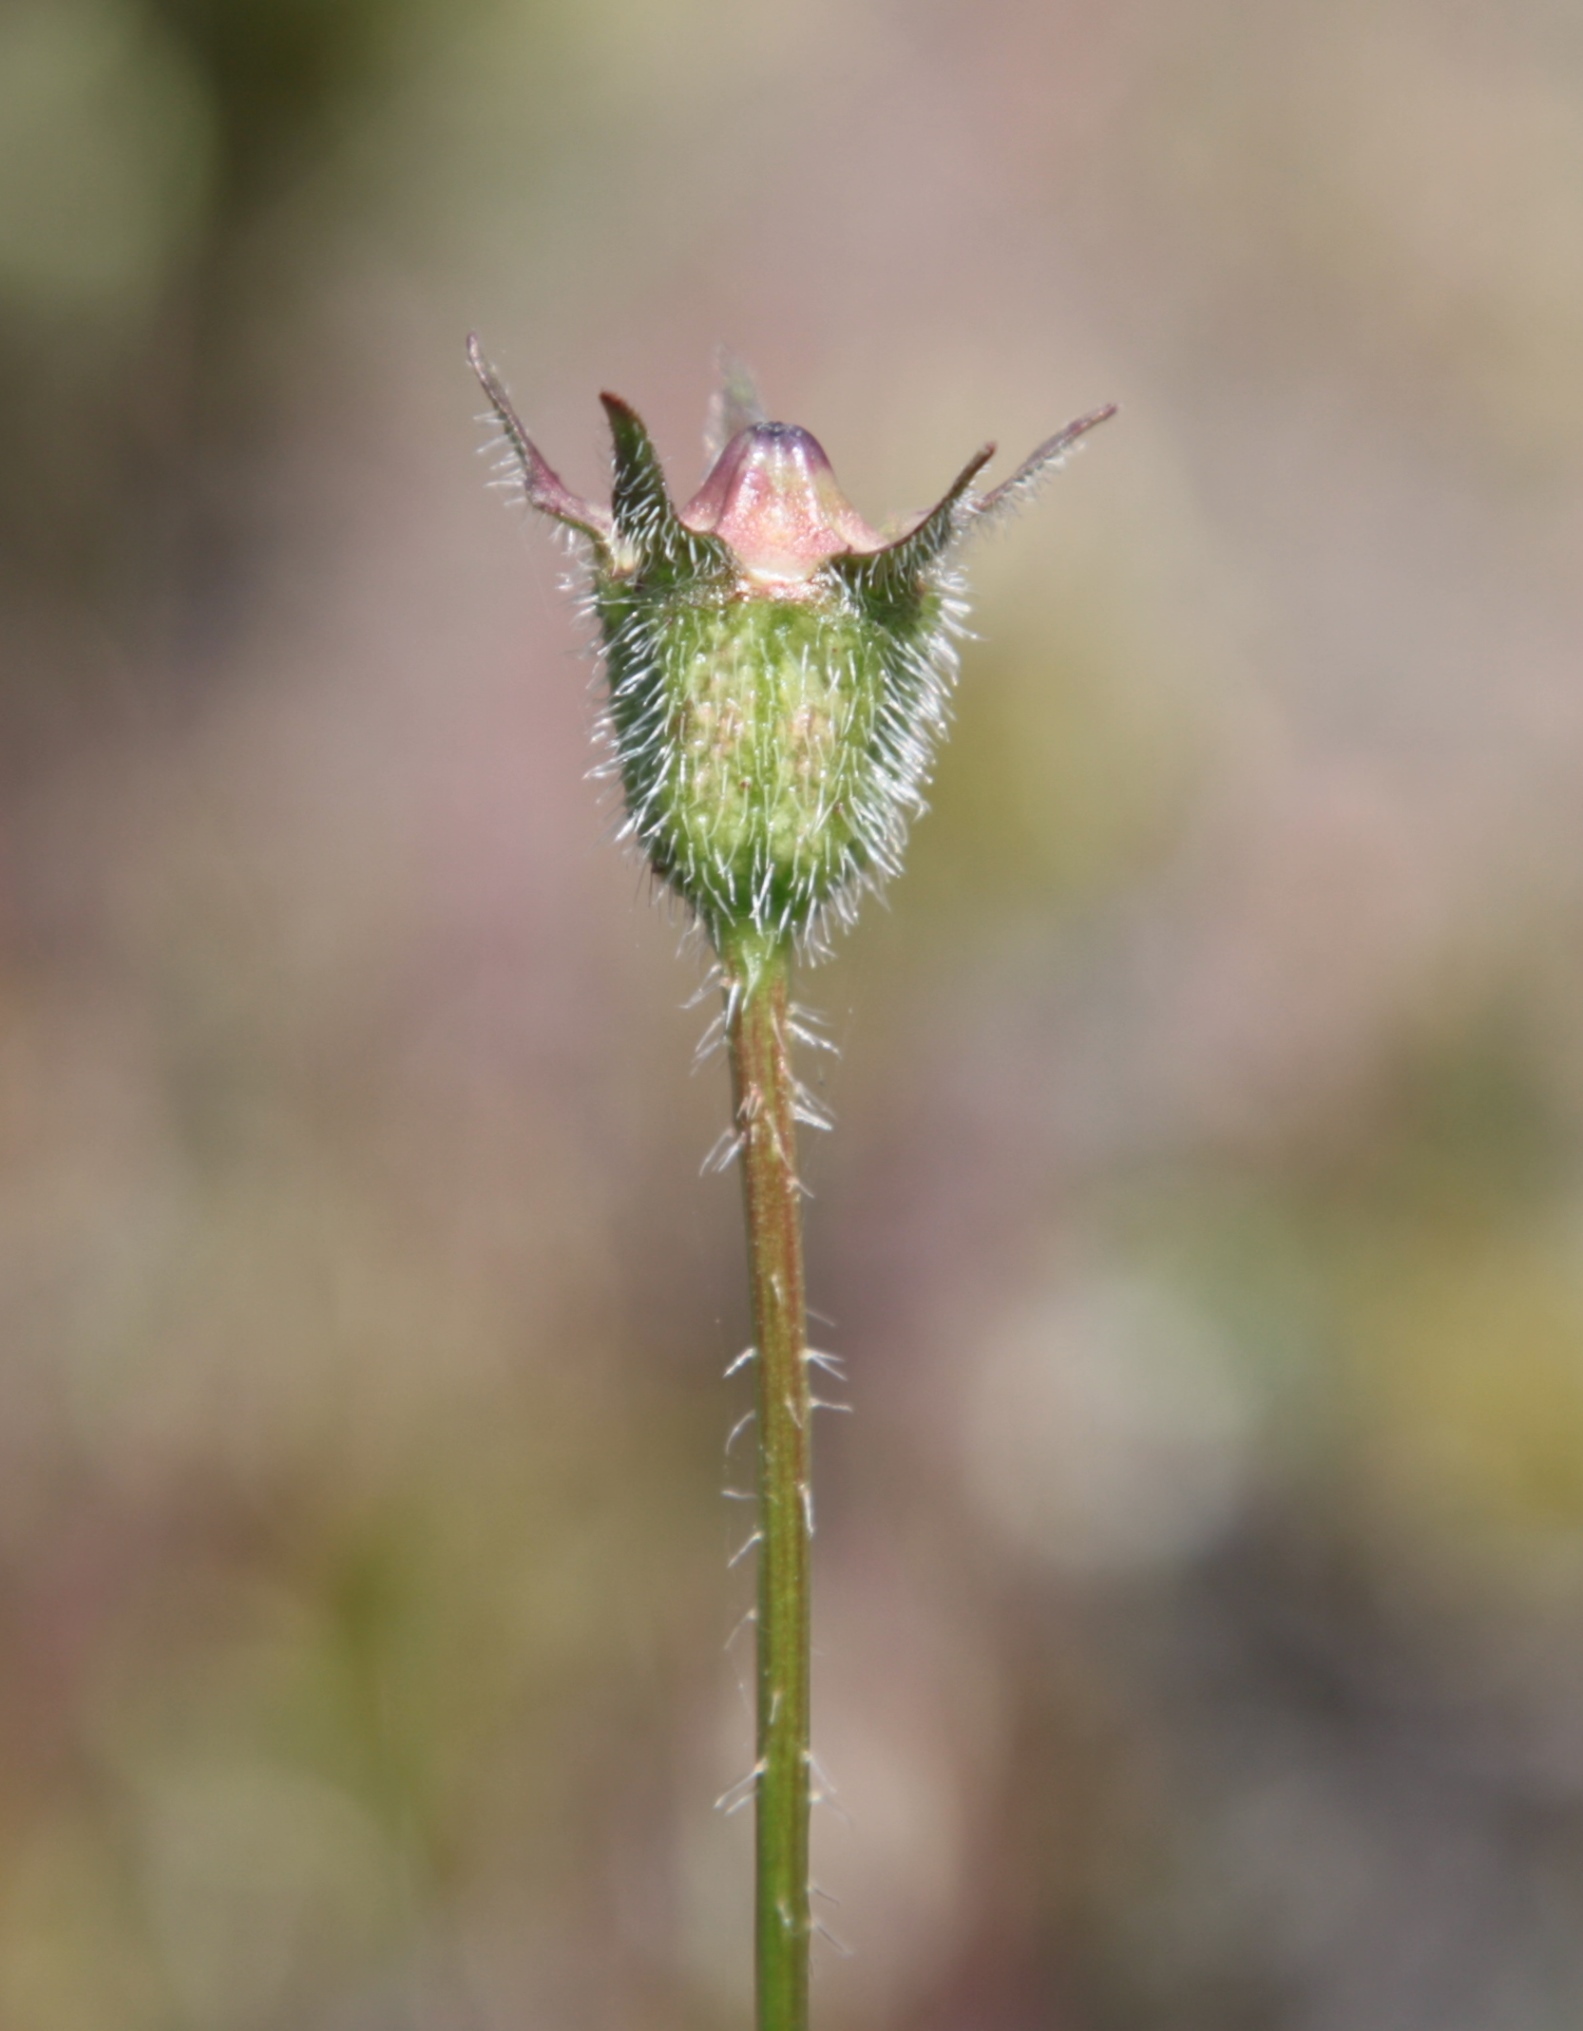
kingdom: Plantae
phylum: Tracheophyta
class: Magnoliopsida
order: Asterales
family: Campanulaceae
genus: Wahlenbergia
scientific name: Wahlenbergia capensis
